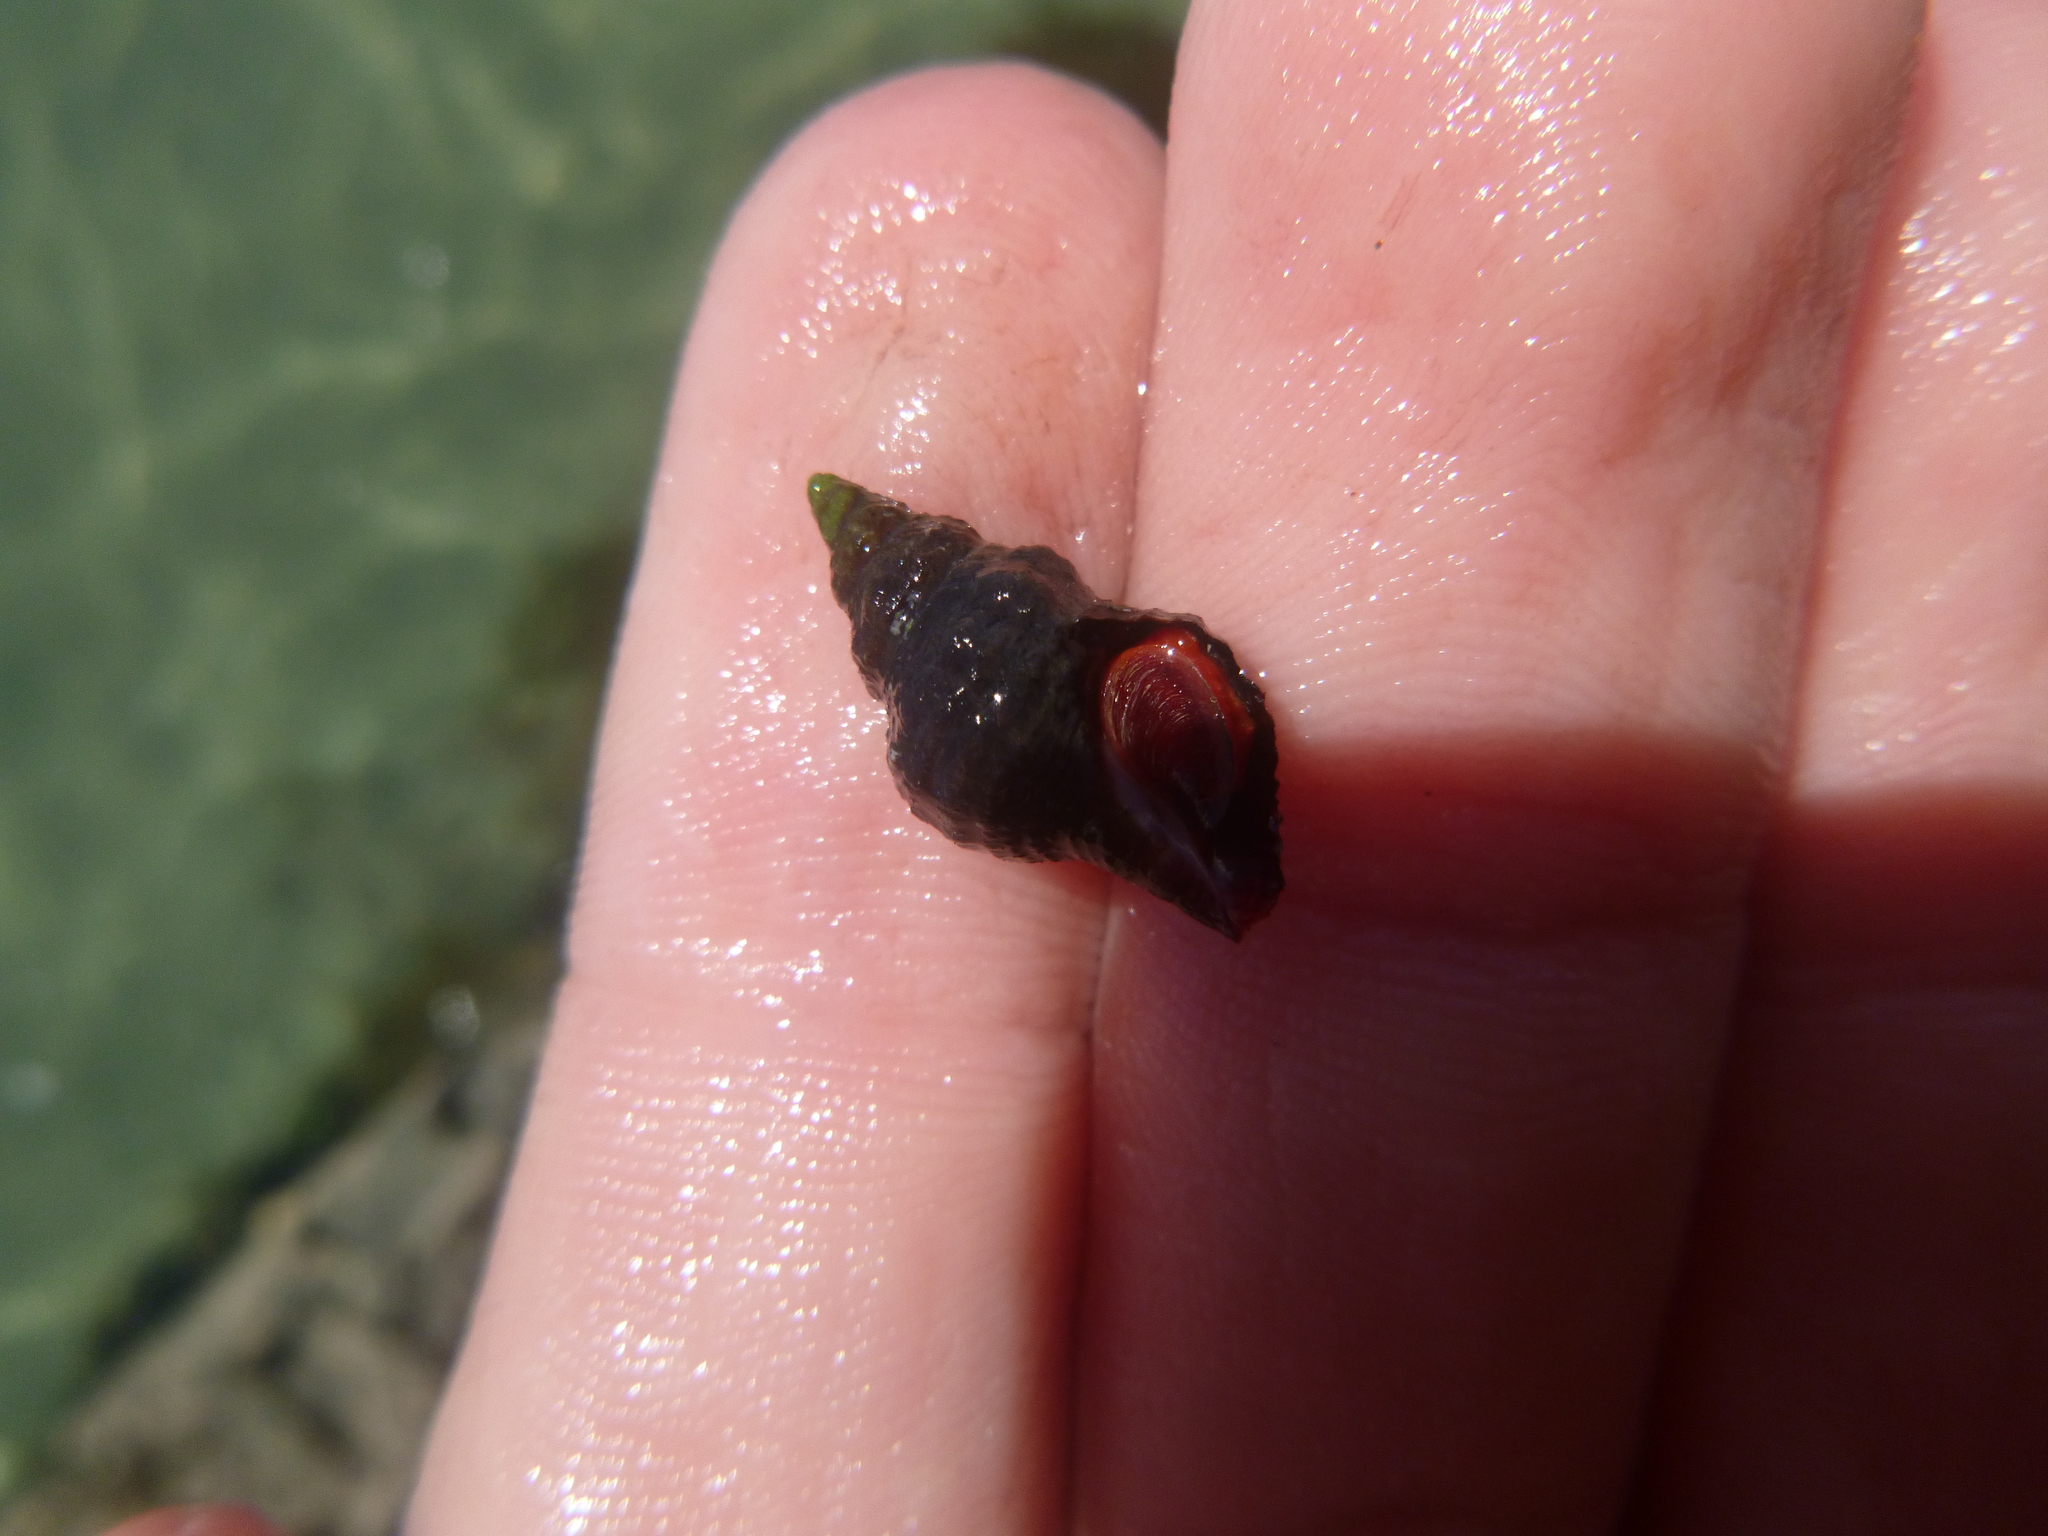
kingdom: Animalia
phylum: Mollusca
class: Gastropoda
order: Neogastropoda
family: Fasciolariidae
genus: Taron
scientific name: Taron dubius
